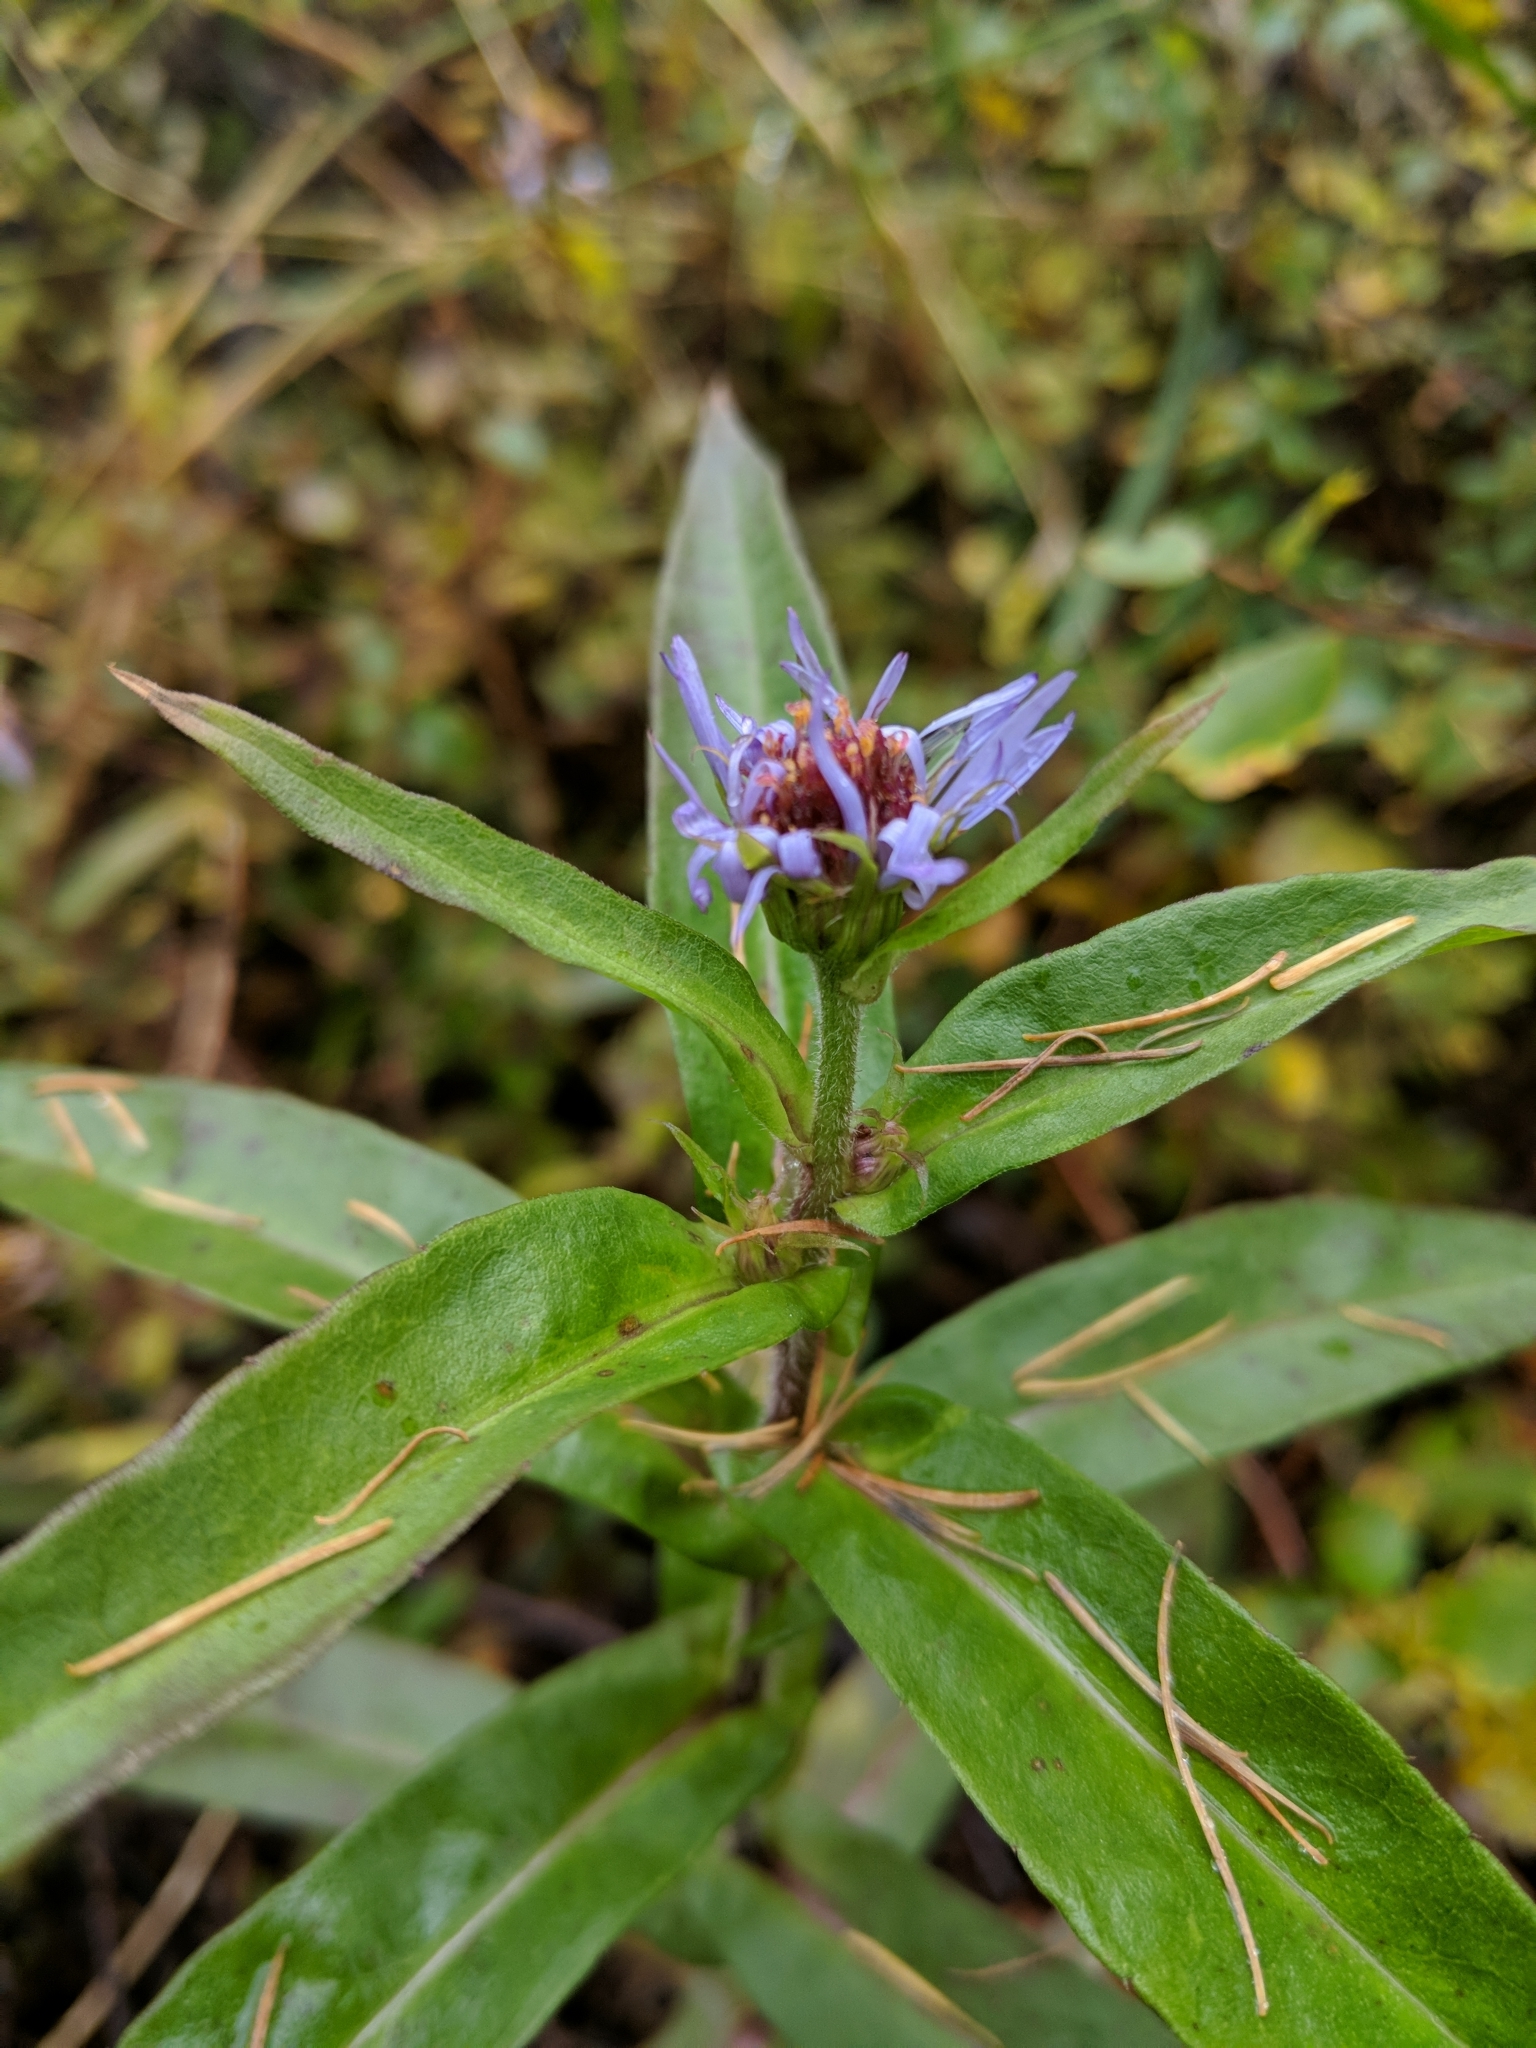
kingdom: Plantae
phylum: Tracheophyta
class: Magnoliopsida
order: Asterales
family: Asteraceae
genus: Symphyotrichum
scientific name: Symphyotrichum puniceum
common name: Bog aster
